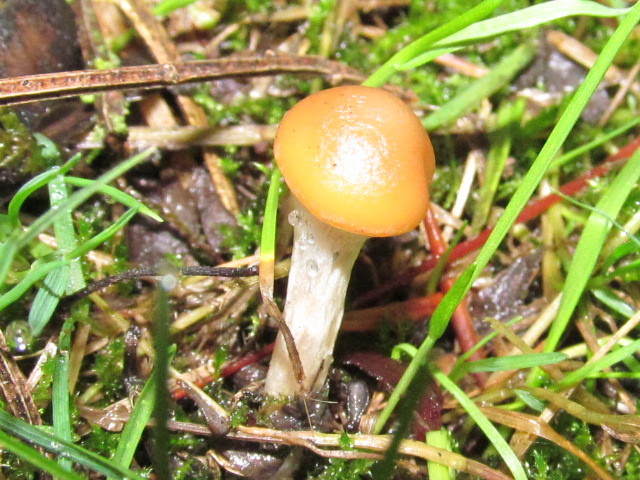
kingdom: Fungi
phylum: Basidiomycota
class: Agaricomycetes
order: Agaricales
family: Hymenogastraceae
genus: Psilocybe
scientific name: Psilocybe cyanescens
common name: Blueleg brownie
